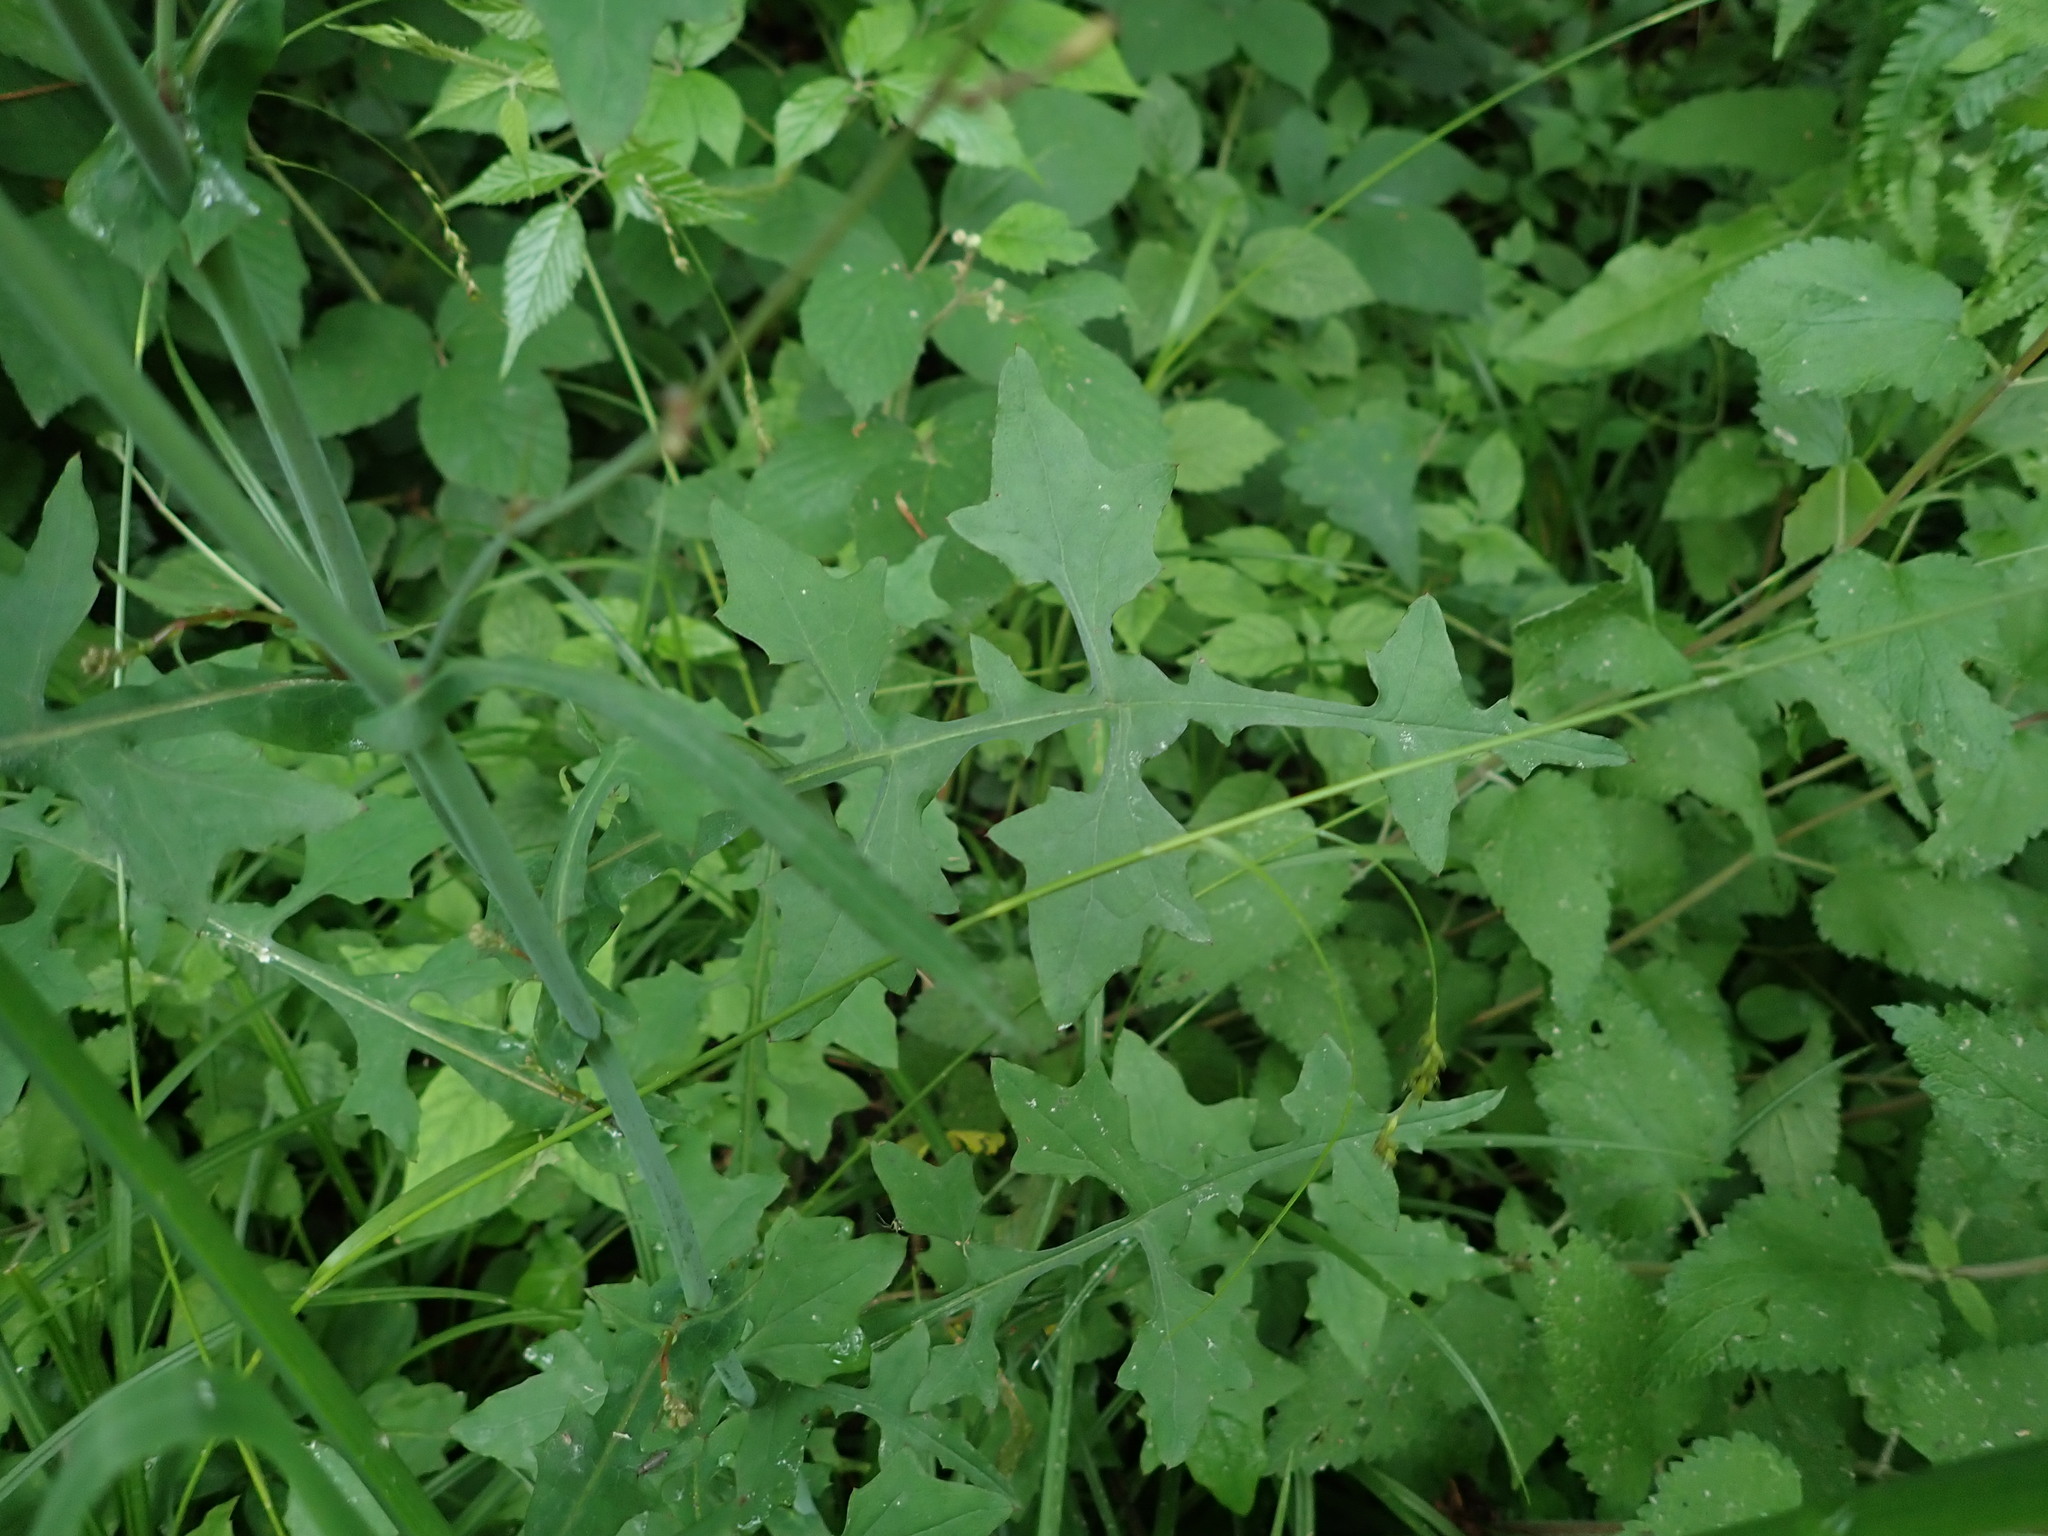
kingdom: Plantae
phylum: Tracheophyta
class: Magnoliopsida
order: Asterales
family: Asteraceae
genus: Mycelis
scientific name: Mycelis muralis
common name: Wall lettuce
